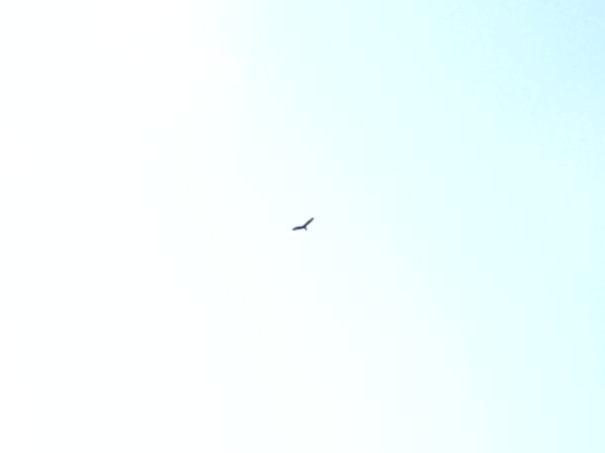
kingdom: Animalia
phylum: Chordata
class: Aves
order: Accipitriformes
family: Cathartidae
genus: Cathartes
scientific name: Cathartes aura
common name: Turkey vulture
